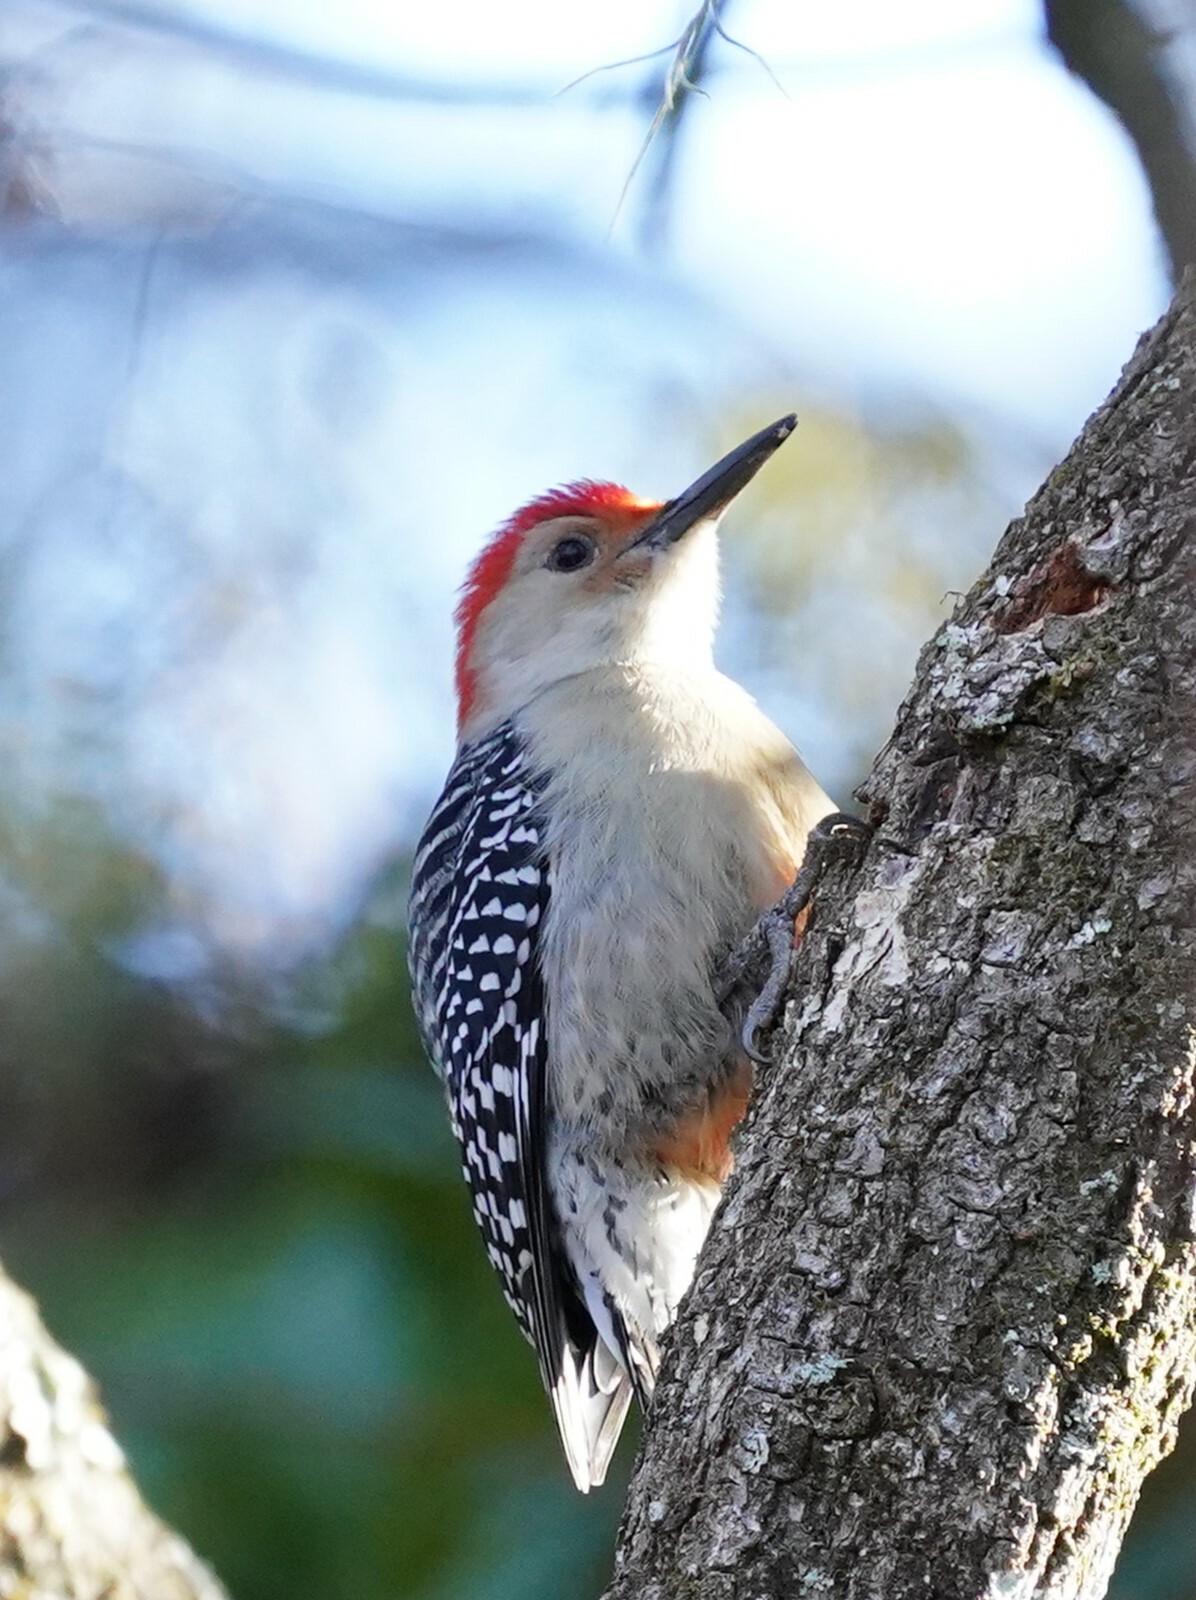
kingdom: Animalia
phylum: Chordata
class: Aves
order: Piciformes
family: Picidae
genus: Melanerpes
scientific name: Melanerpes carolinus
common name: Red-bellied woodpecker
